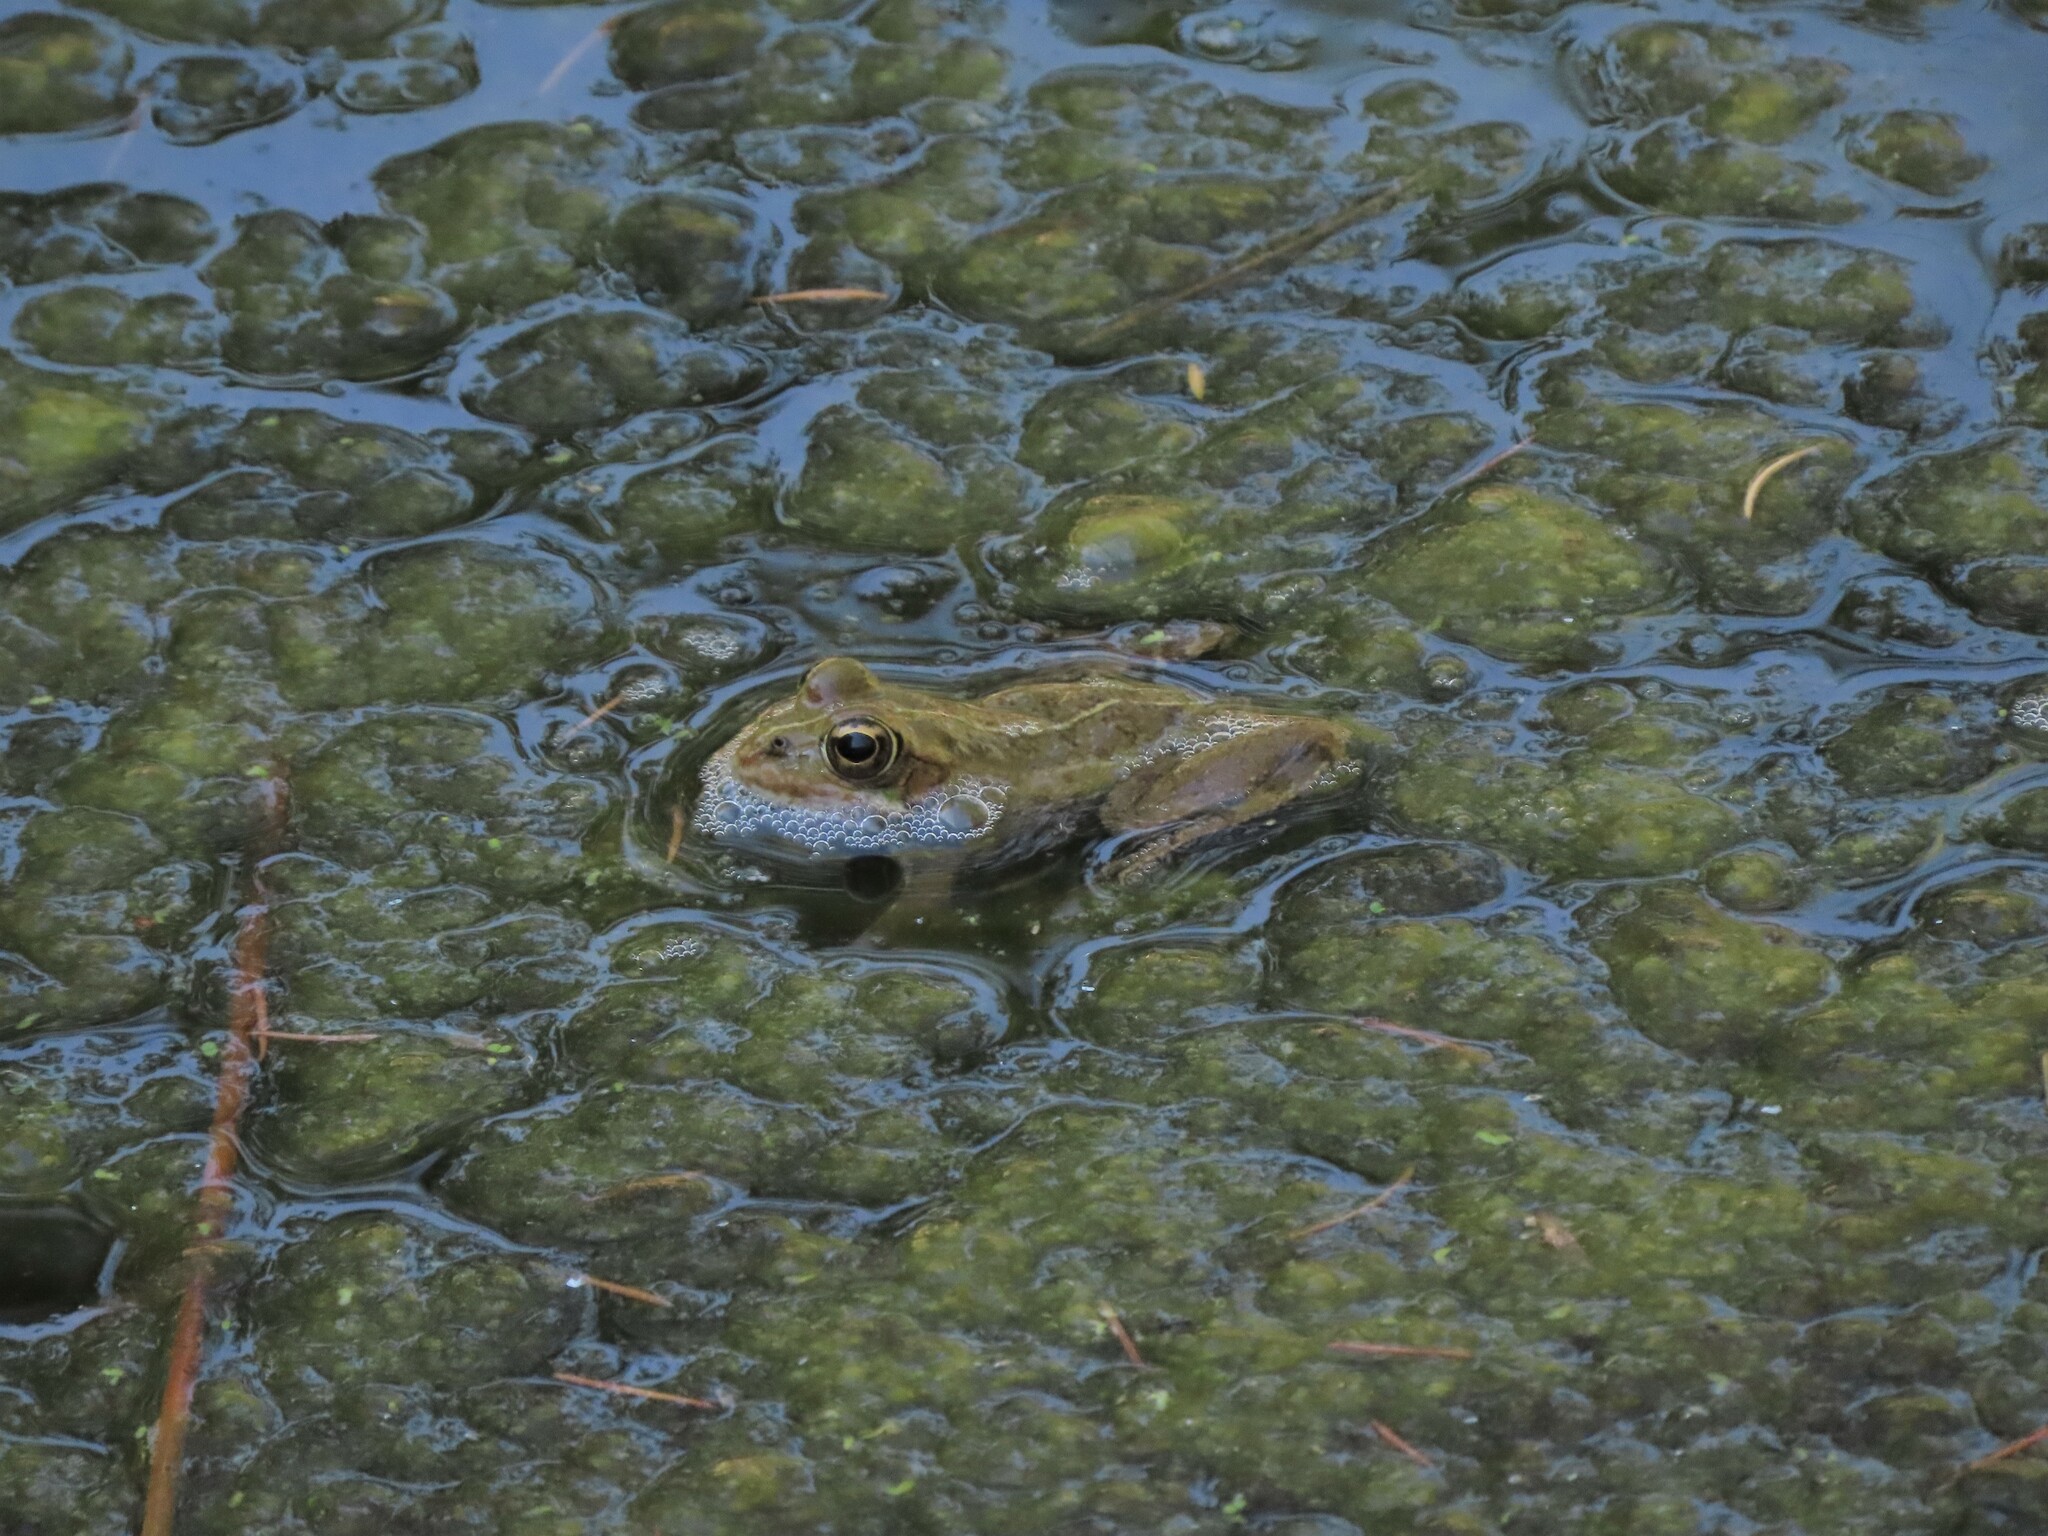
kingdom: Animalia
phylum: Chordata
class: Amphibia
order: Anura
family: Ranidae
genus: Pelophylax
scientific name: Pelophylax perezi
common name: Perez's frog
